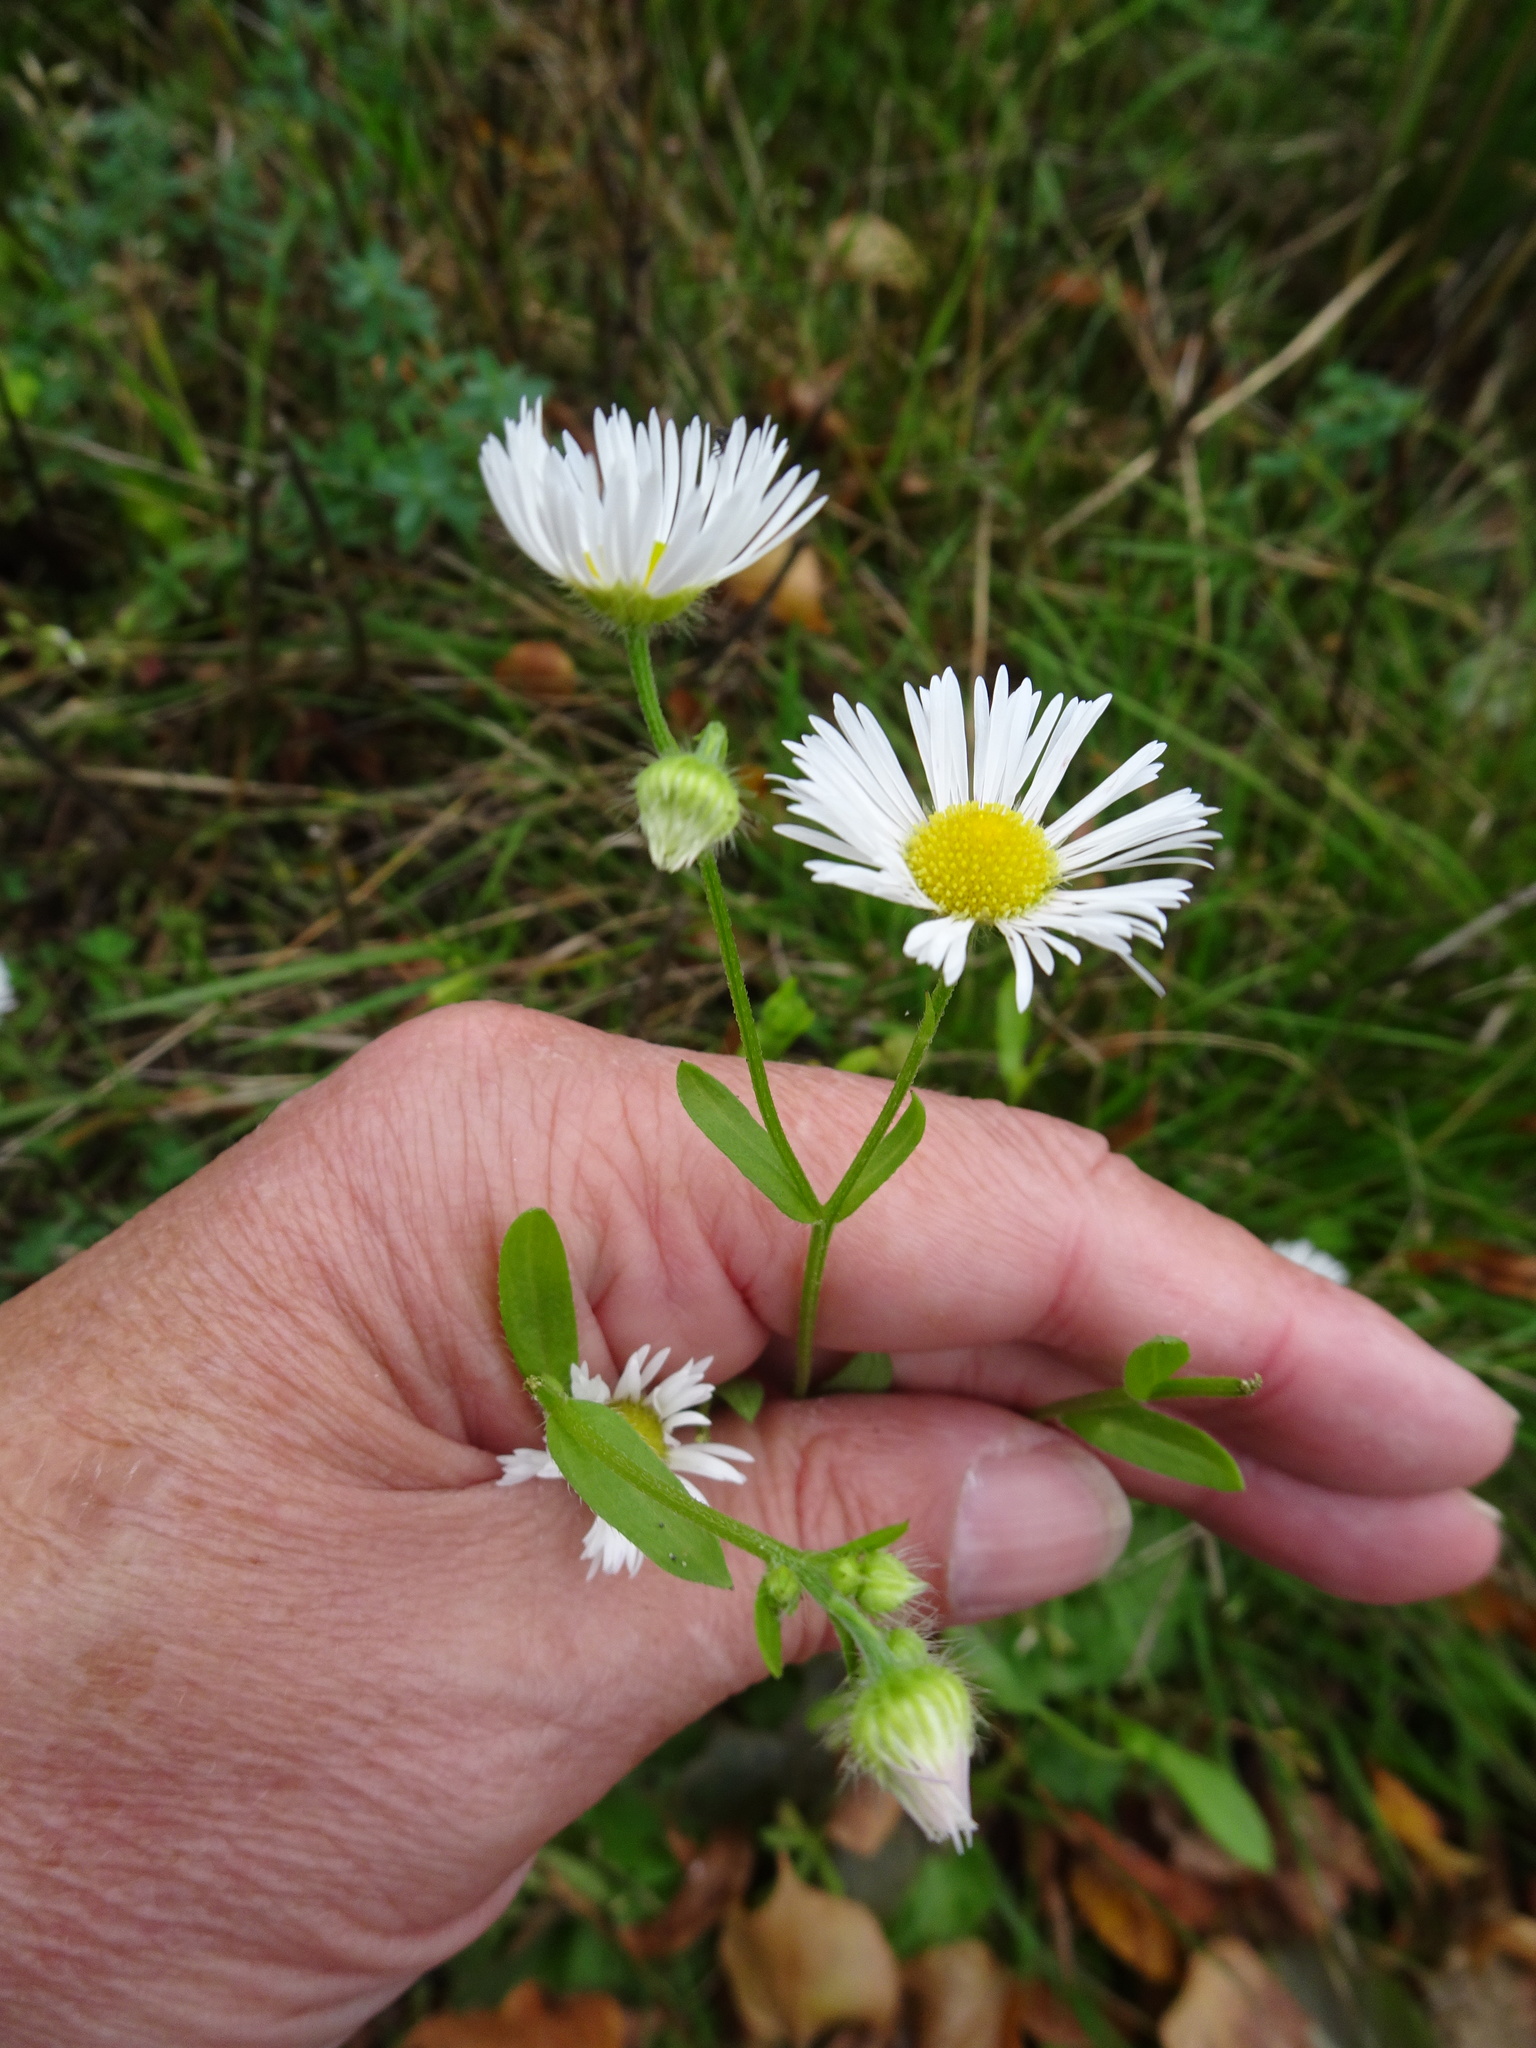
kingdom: Plantae
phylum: Tracheophyta
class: Magnoliopsida
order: Asterales
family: Asteraceae
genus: Erigeron
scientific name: Erigeron annuus
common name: Tall fleabane
